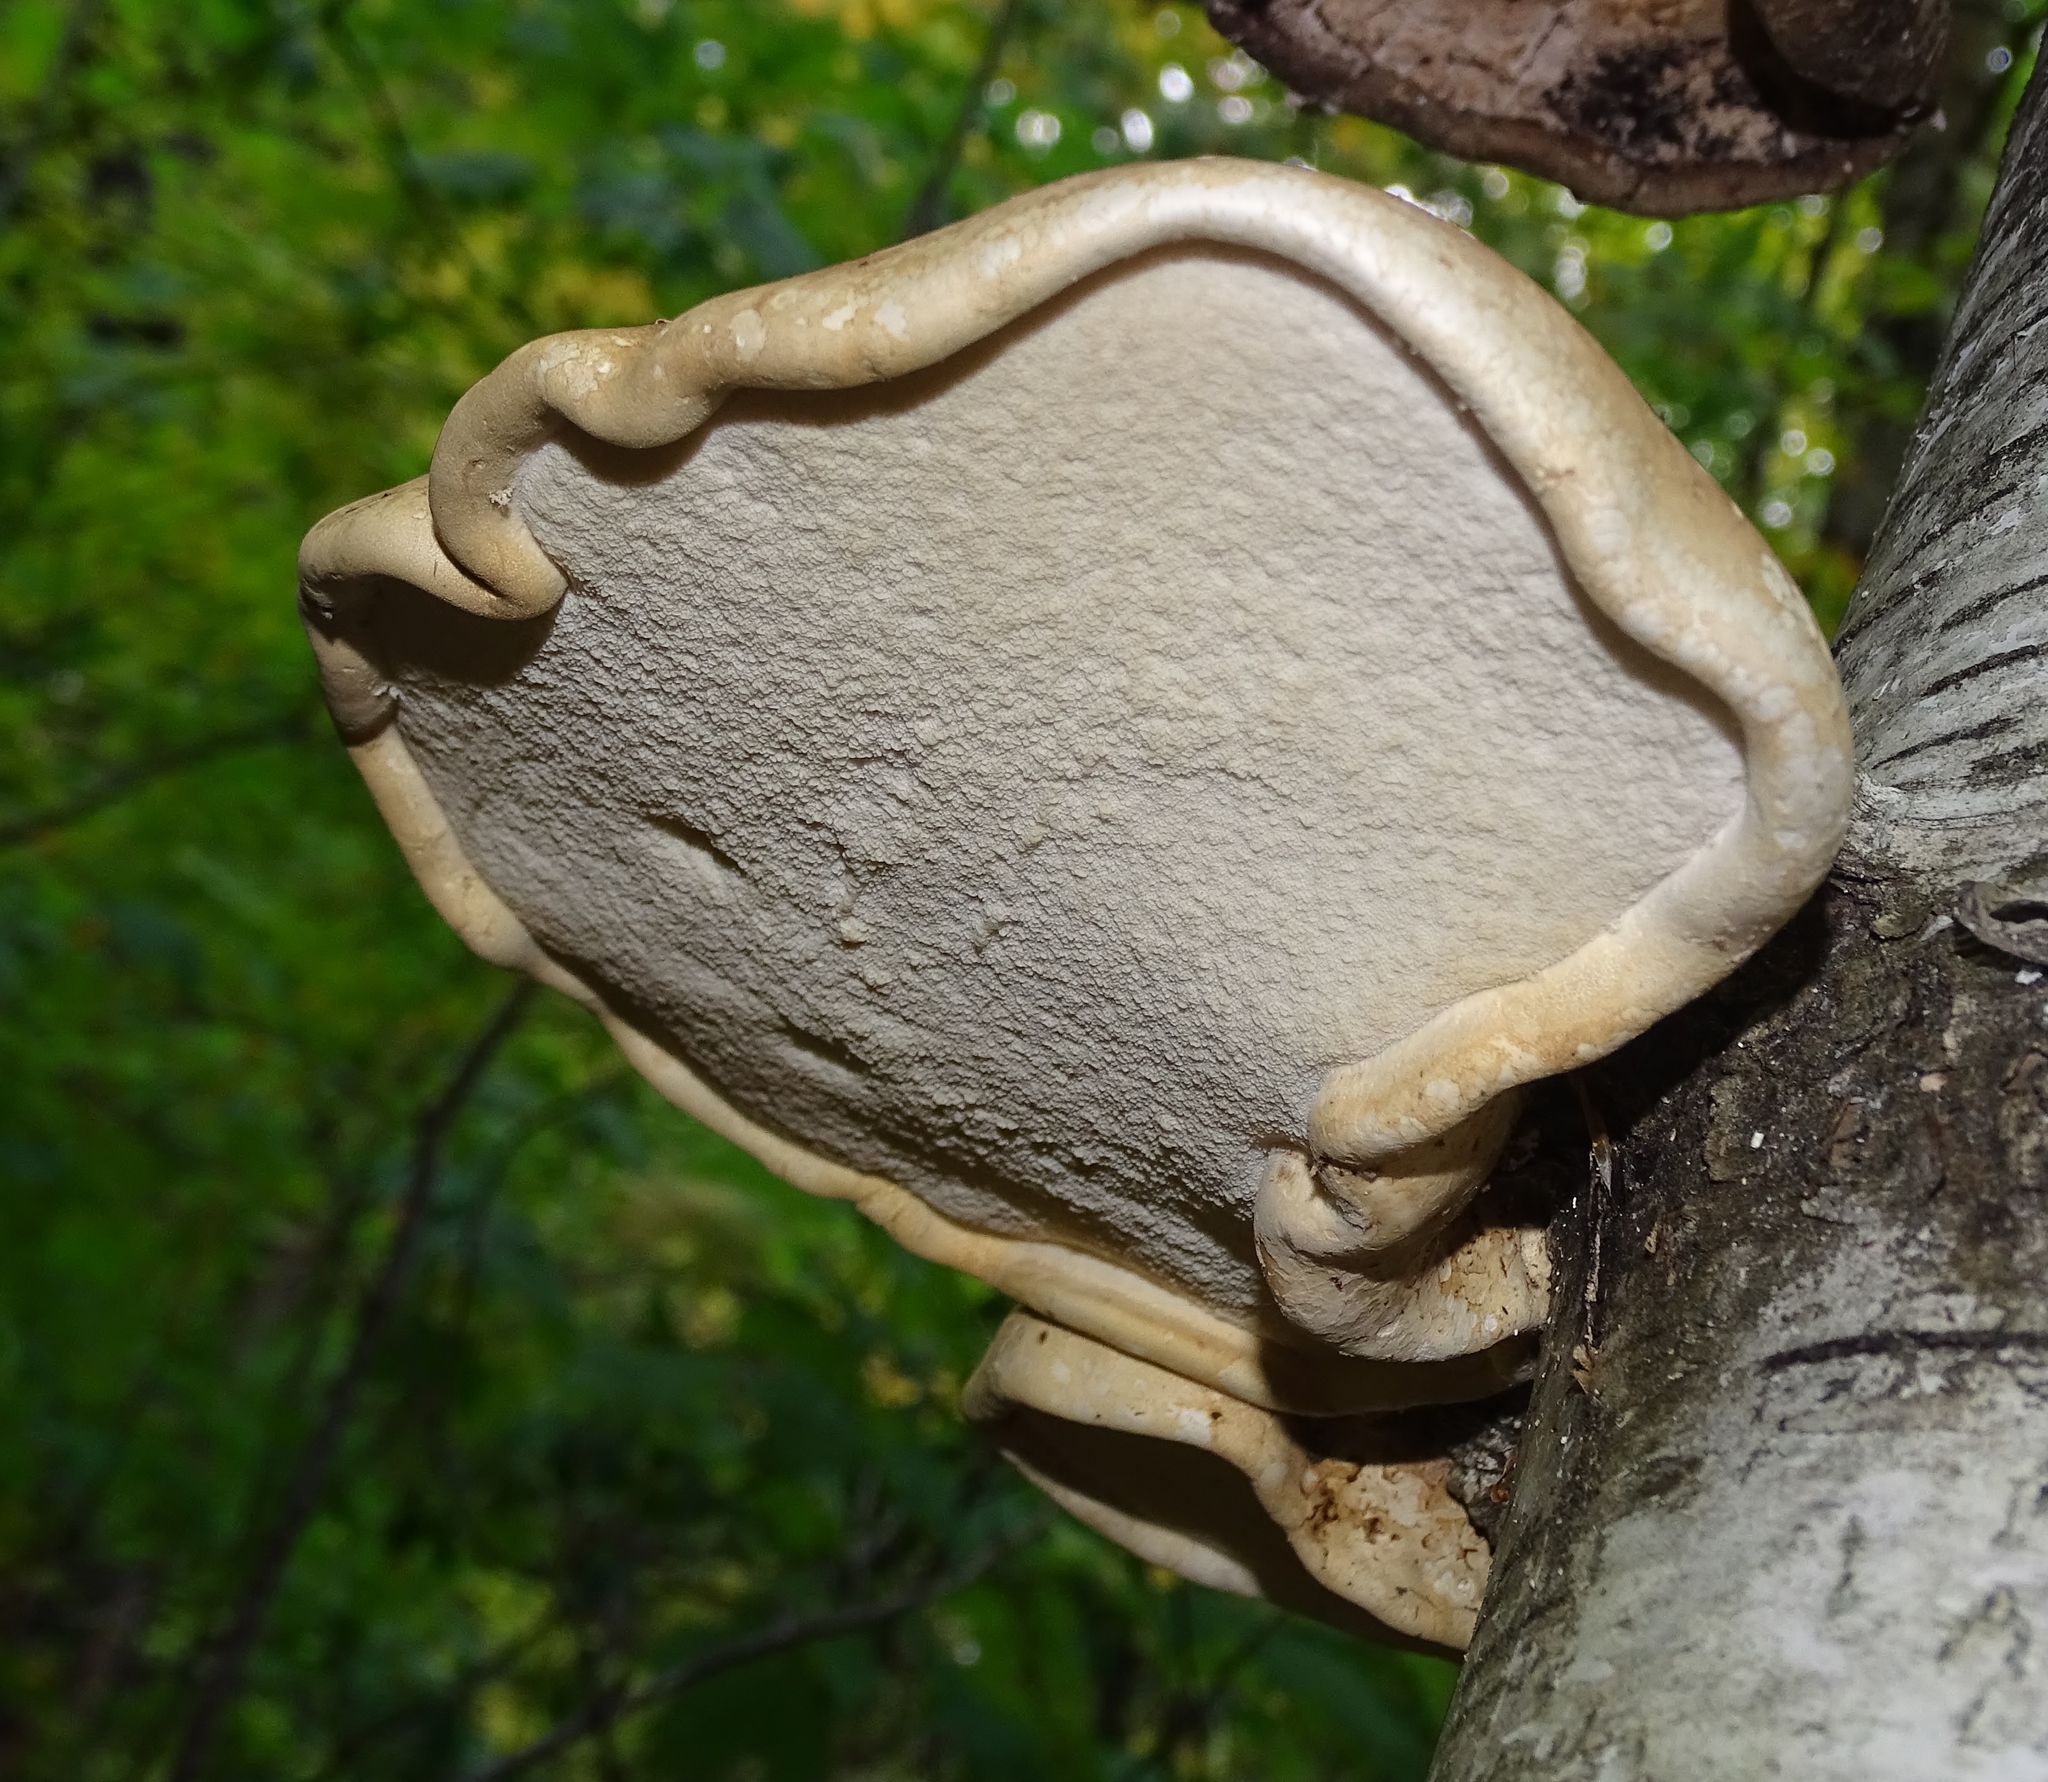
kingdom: Fungi
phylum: Basidiomycota
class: Agaricomycetes
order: Polyporales
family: Fomitopsidaceae
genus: Fomitopsis
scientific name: Fomitopsis betulina
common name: Birch polypore
